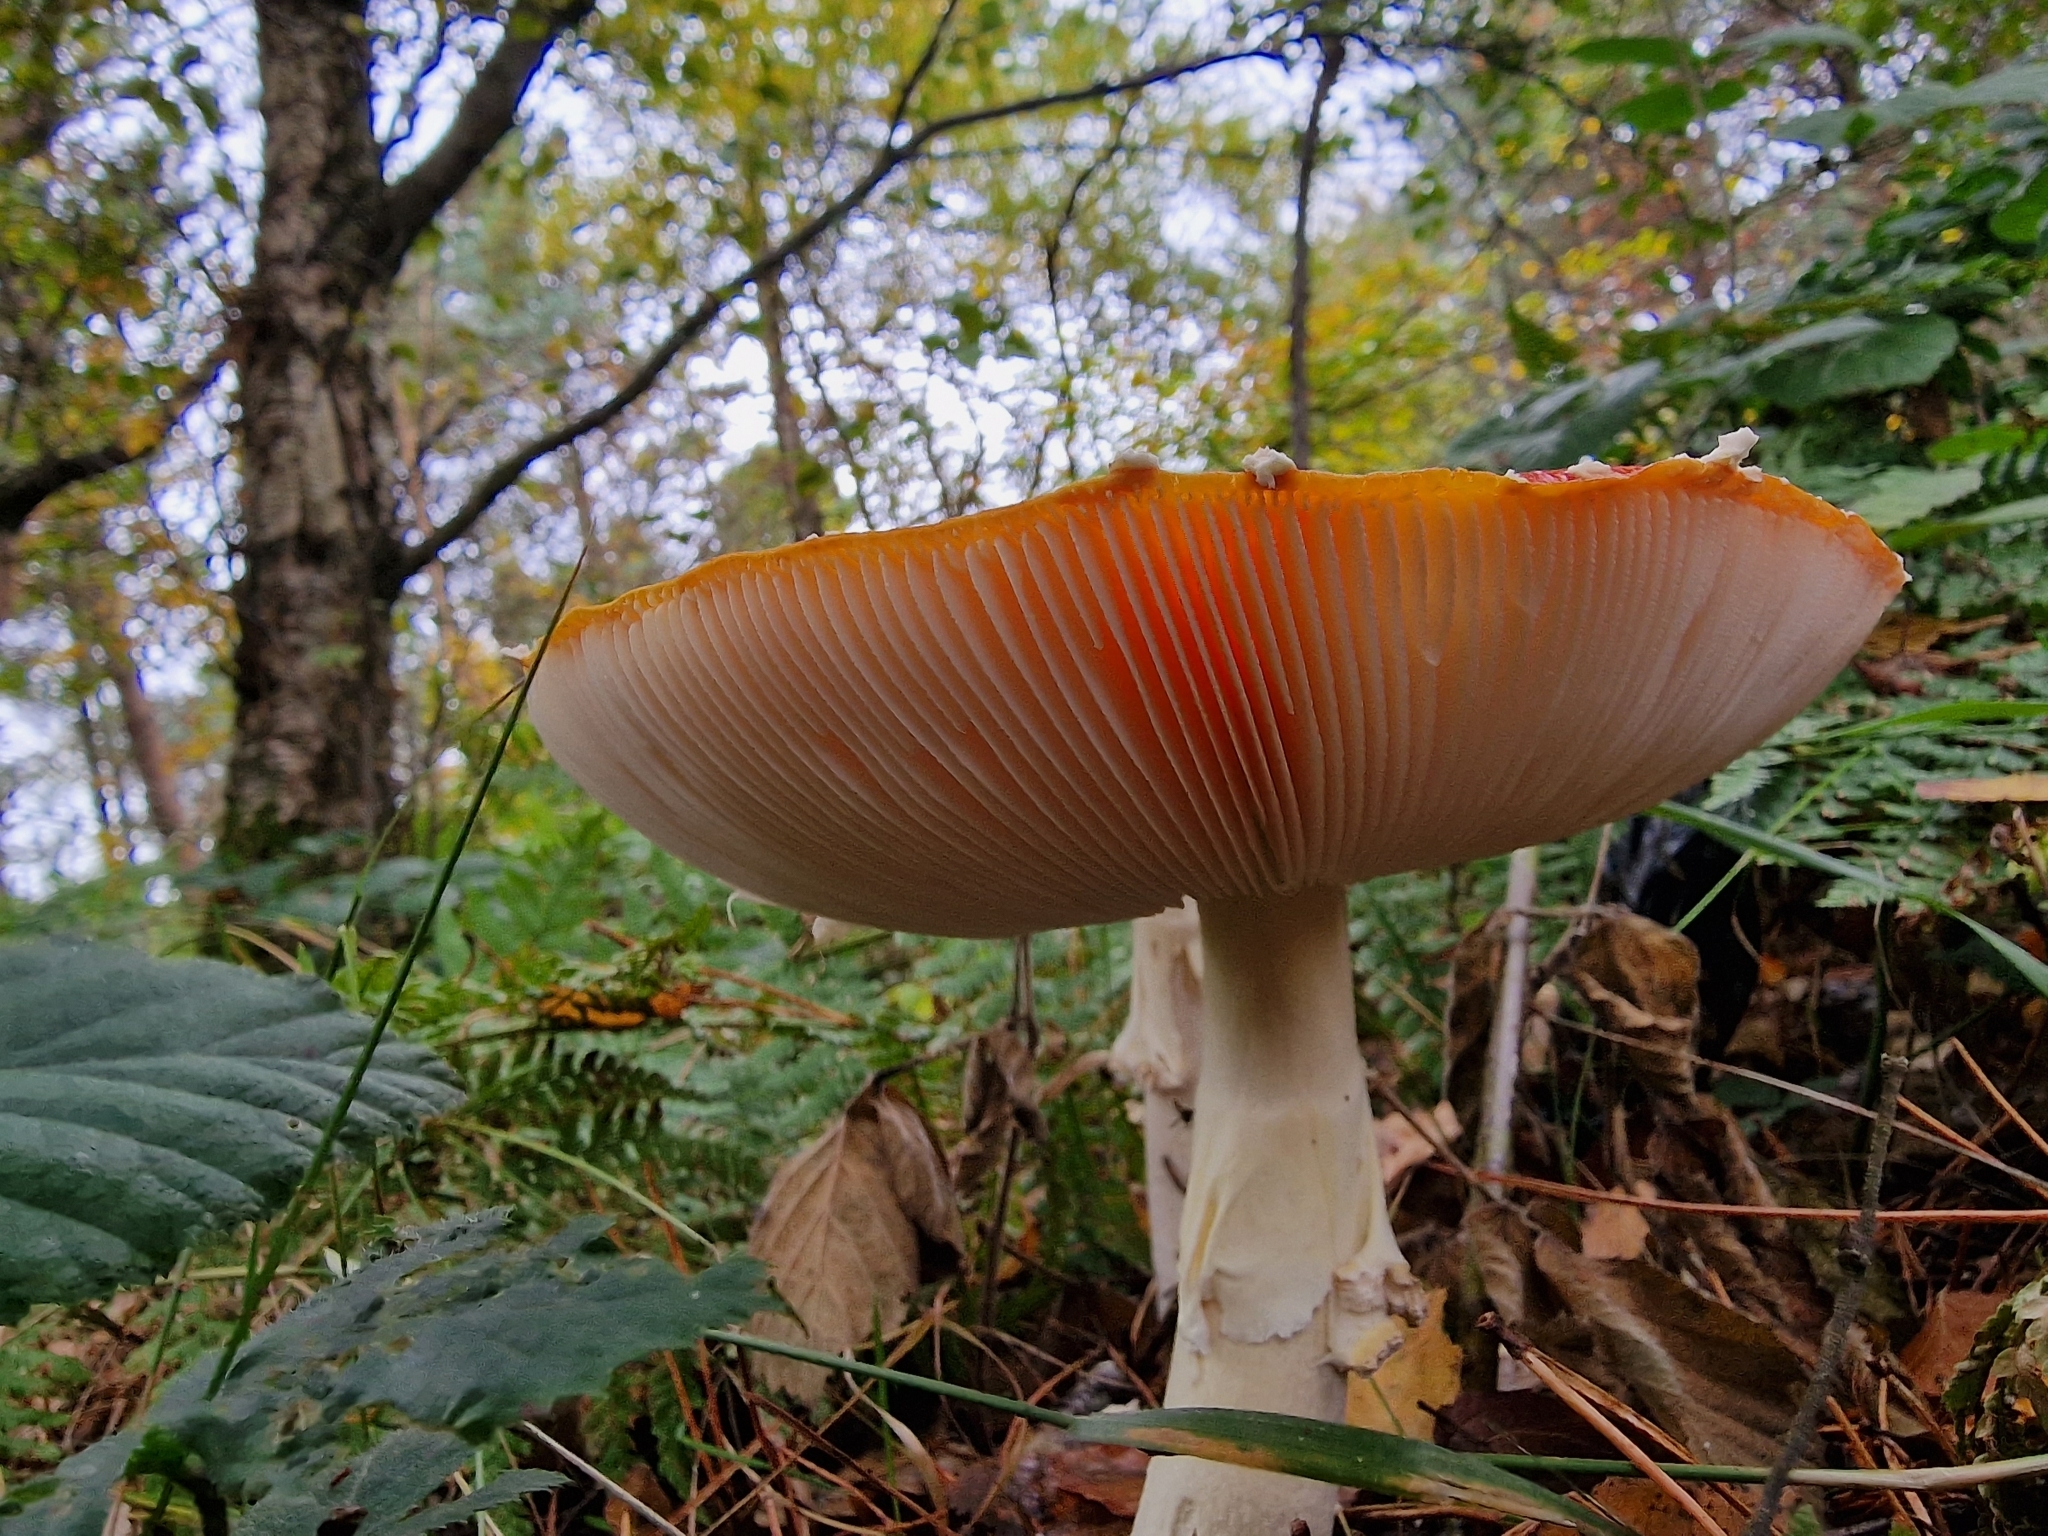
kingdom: Fungi
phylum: Basidiomycota
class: Agaricomycetes
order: Agaricales
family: Amanitaceae
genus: Amanita
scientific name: Amanita muscaria
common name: Fly agaric
